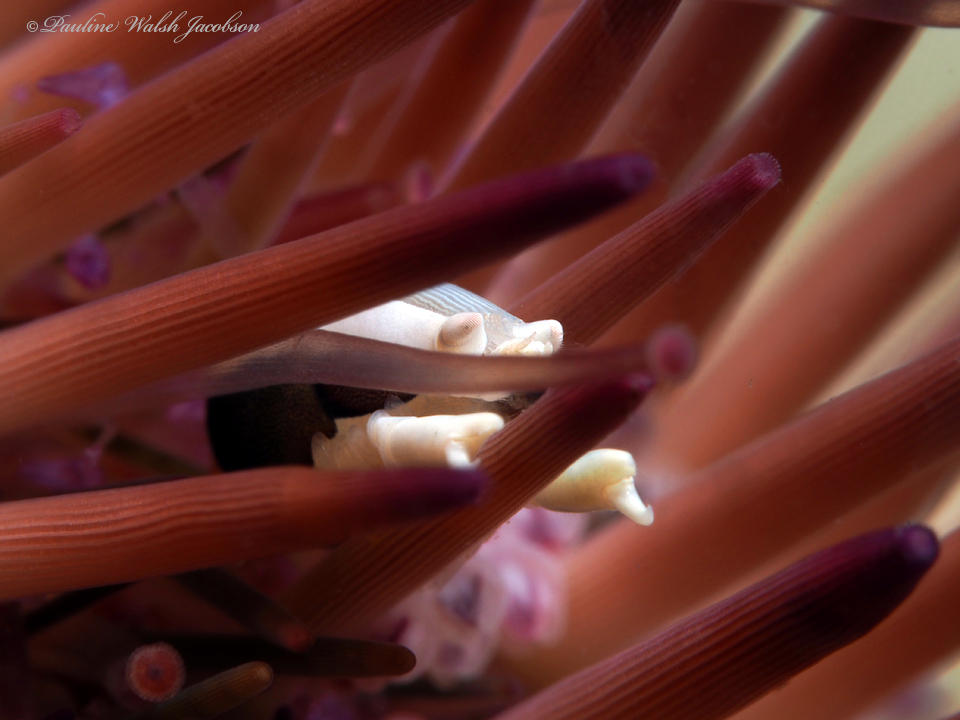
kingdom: Animalia
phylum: Arthropoda
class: Malacostraca
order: Decapoda
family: Palaemonidae
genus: Gnathophylloides
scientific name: Gnathophylloides mineri
